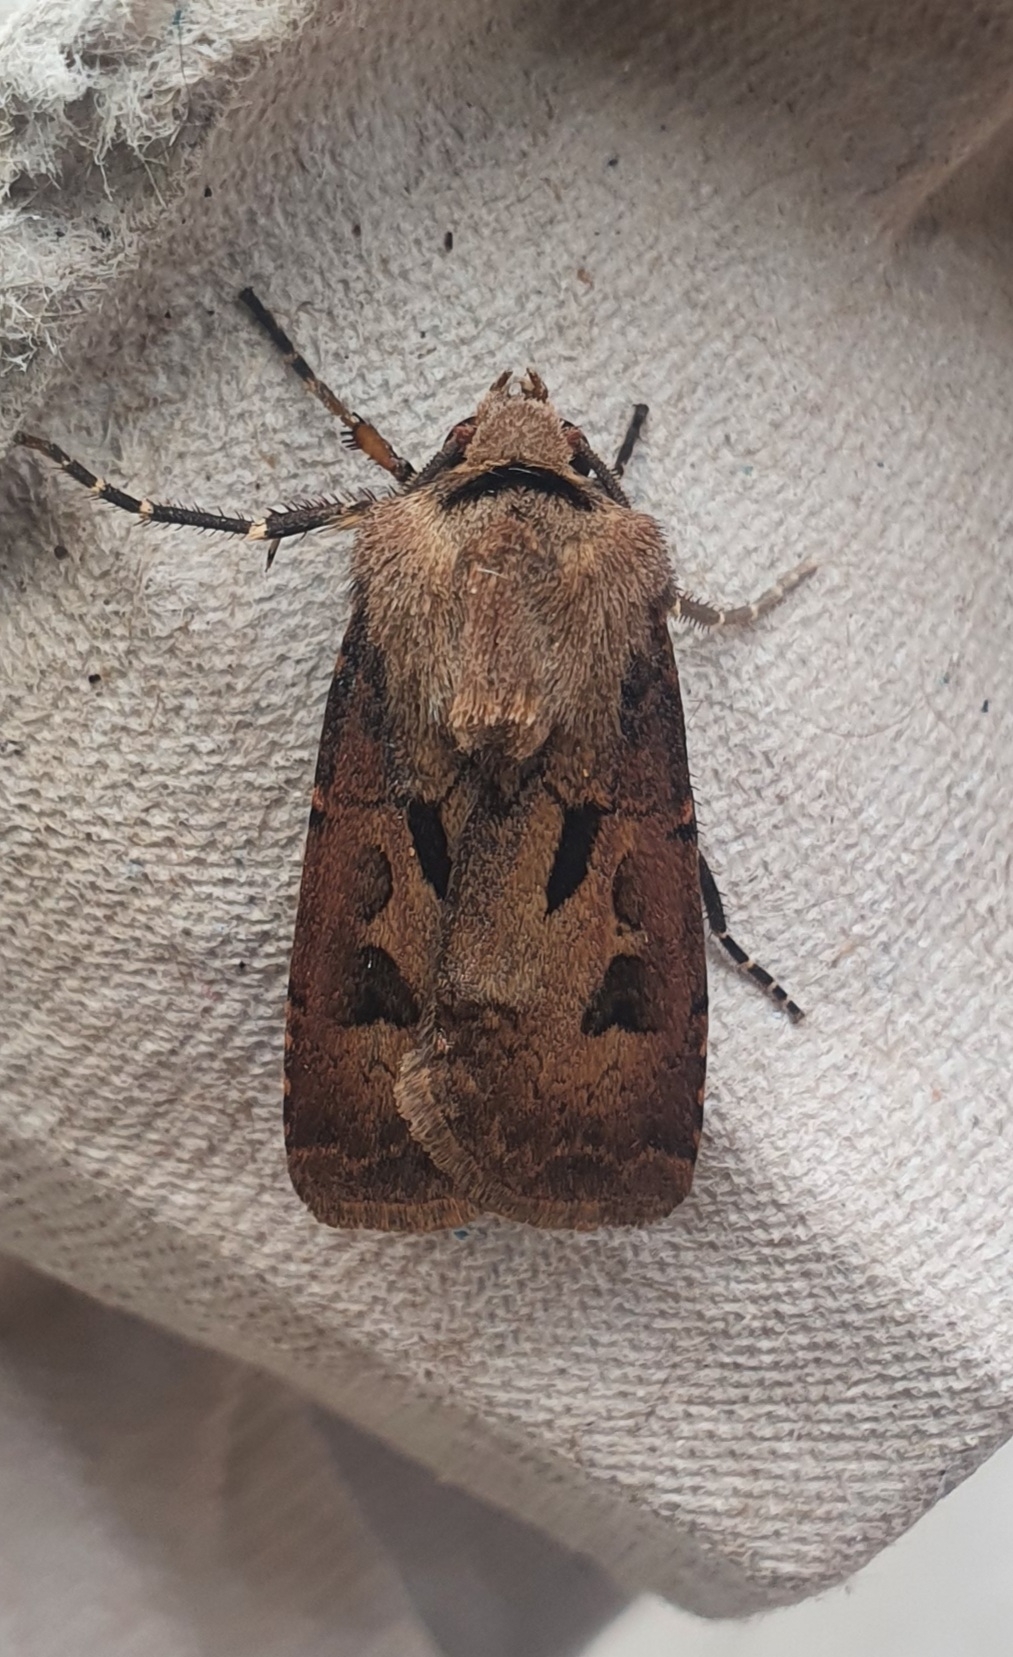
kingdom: Animalia
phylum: Arthropoda
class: Insecta
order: Lepidoptera
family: Noctuidae
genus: Agrotis
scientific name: Agrotis exclamationis
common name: Heart and dart
